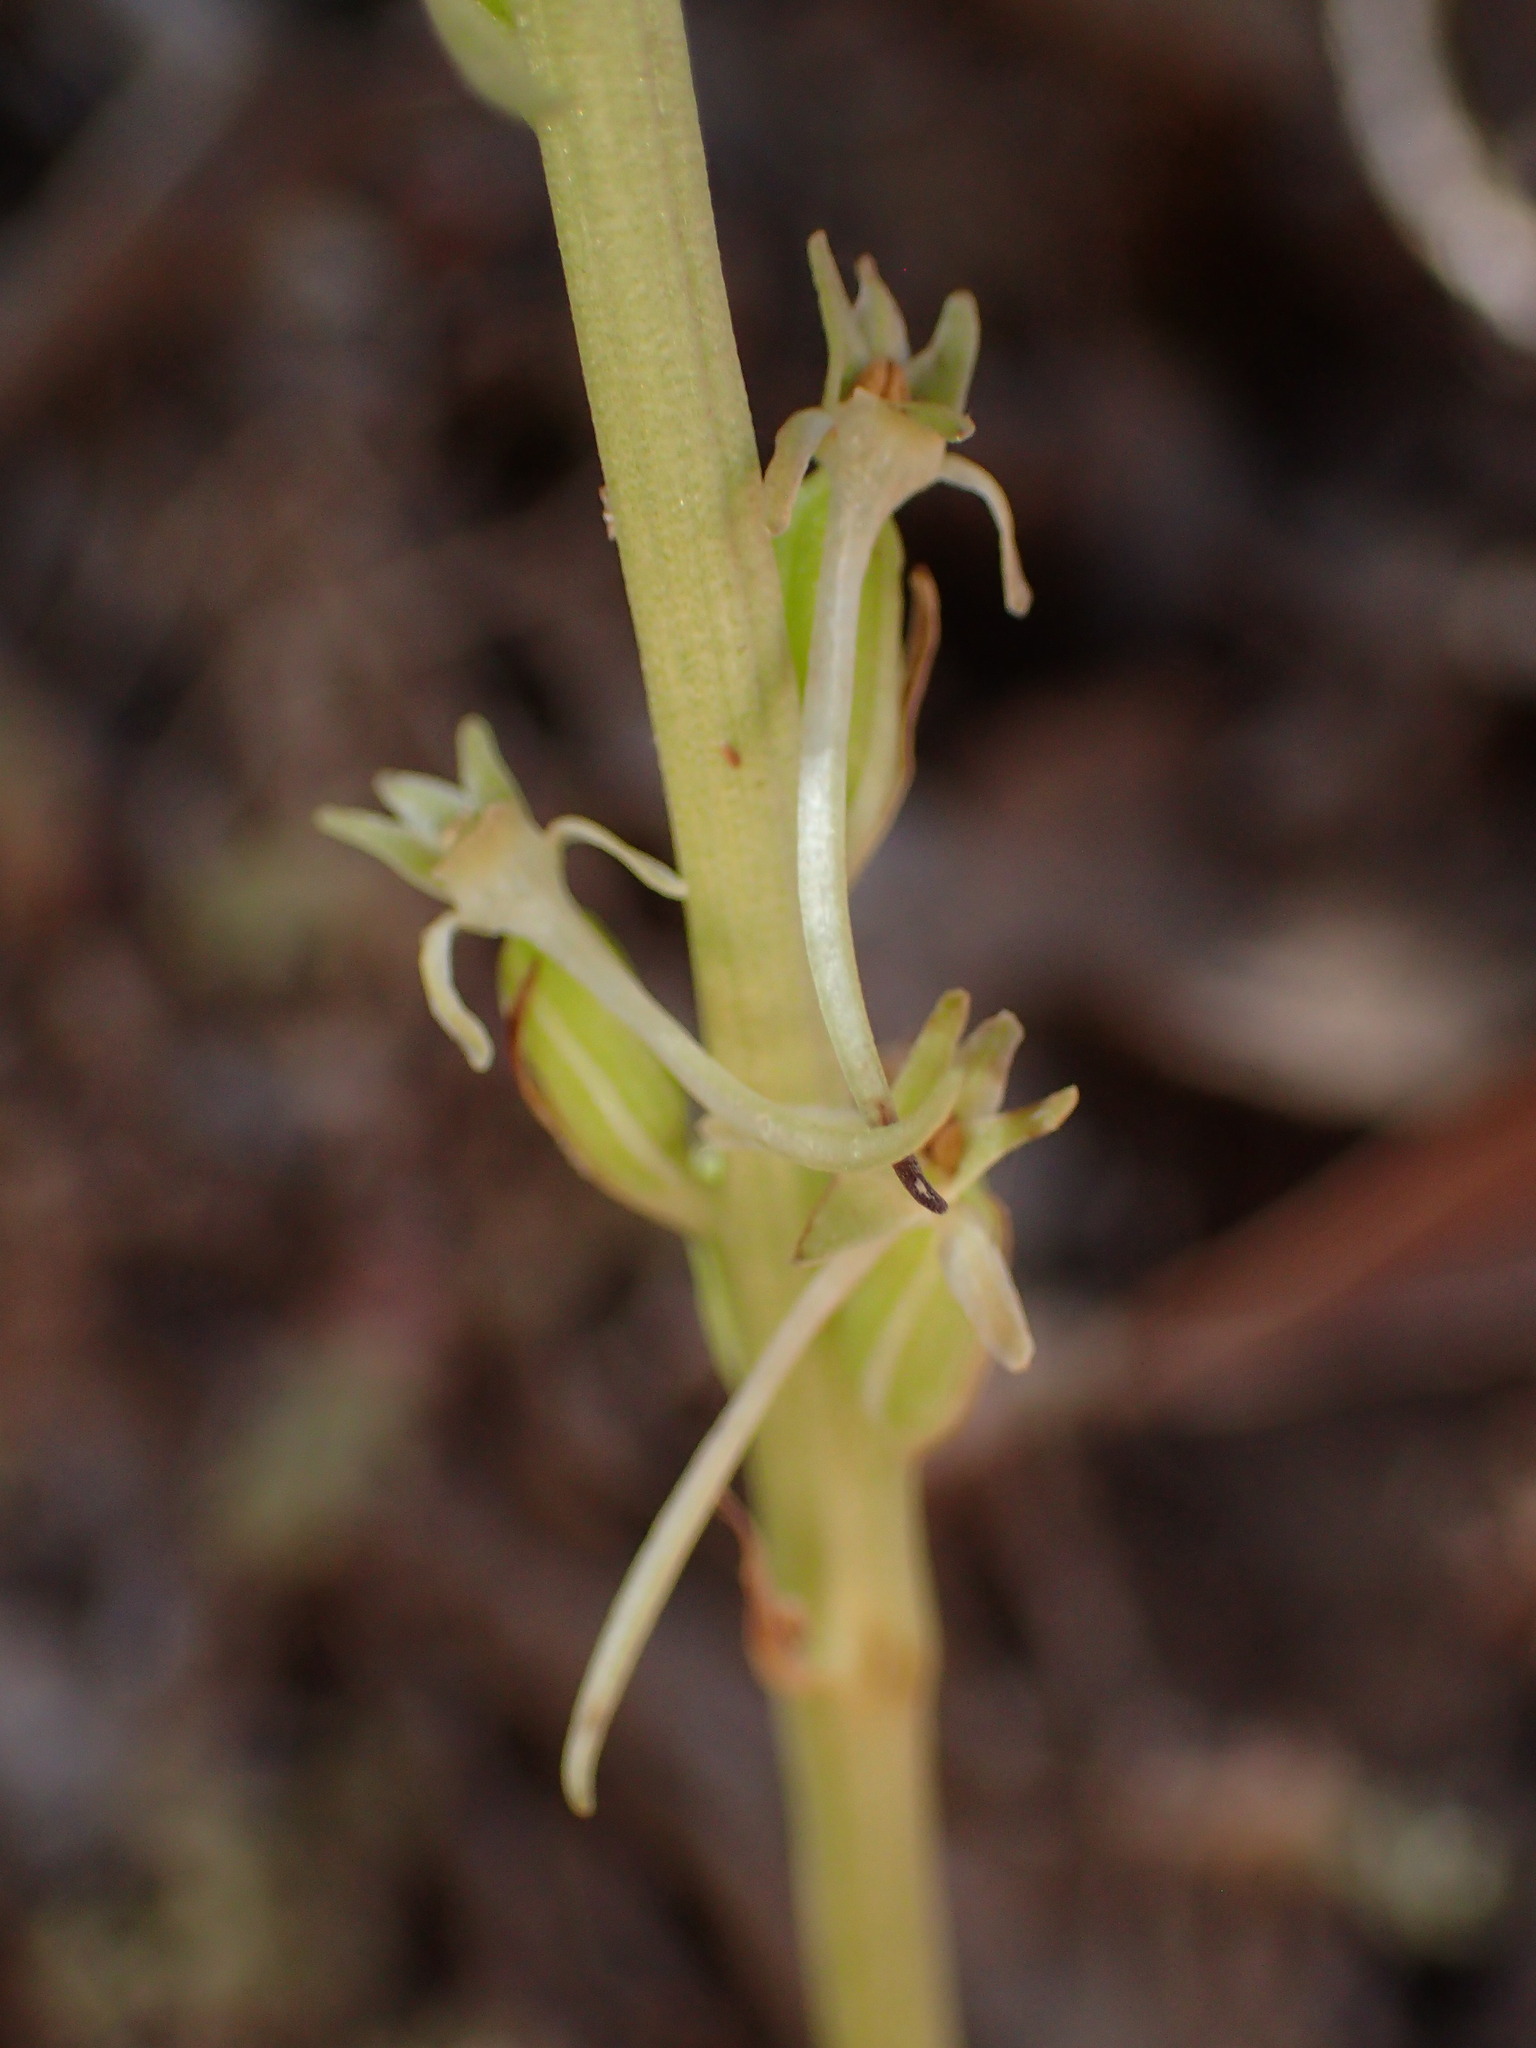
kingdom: Plantae
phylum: Tracheophyta
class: Liliopsida
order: Asparagales
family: Orchidaceae
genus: Platanthera
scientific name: Platanthera elongata
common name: Dense-flowered rein orchid
